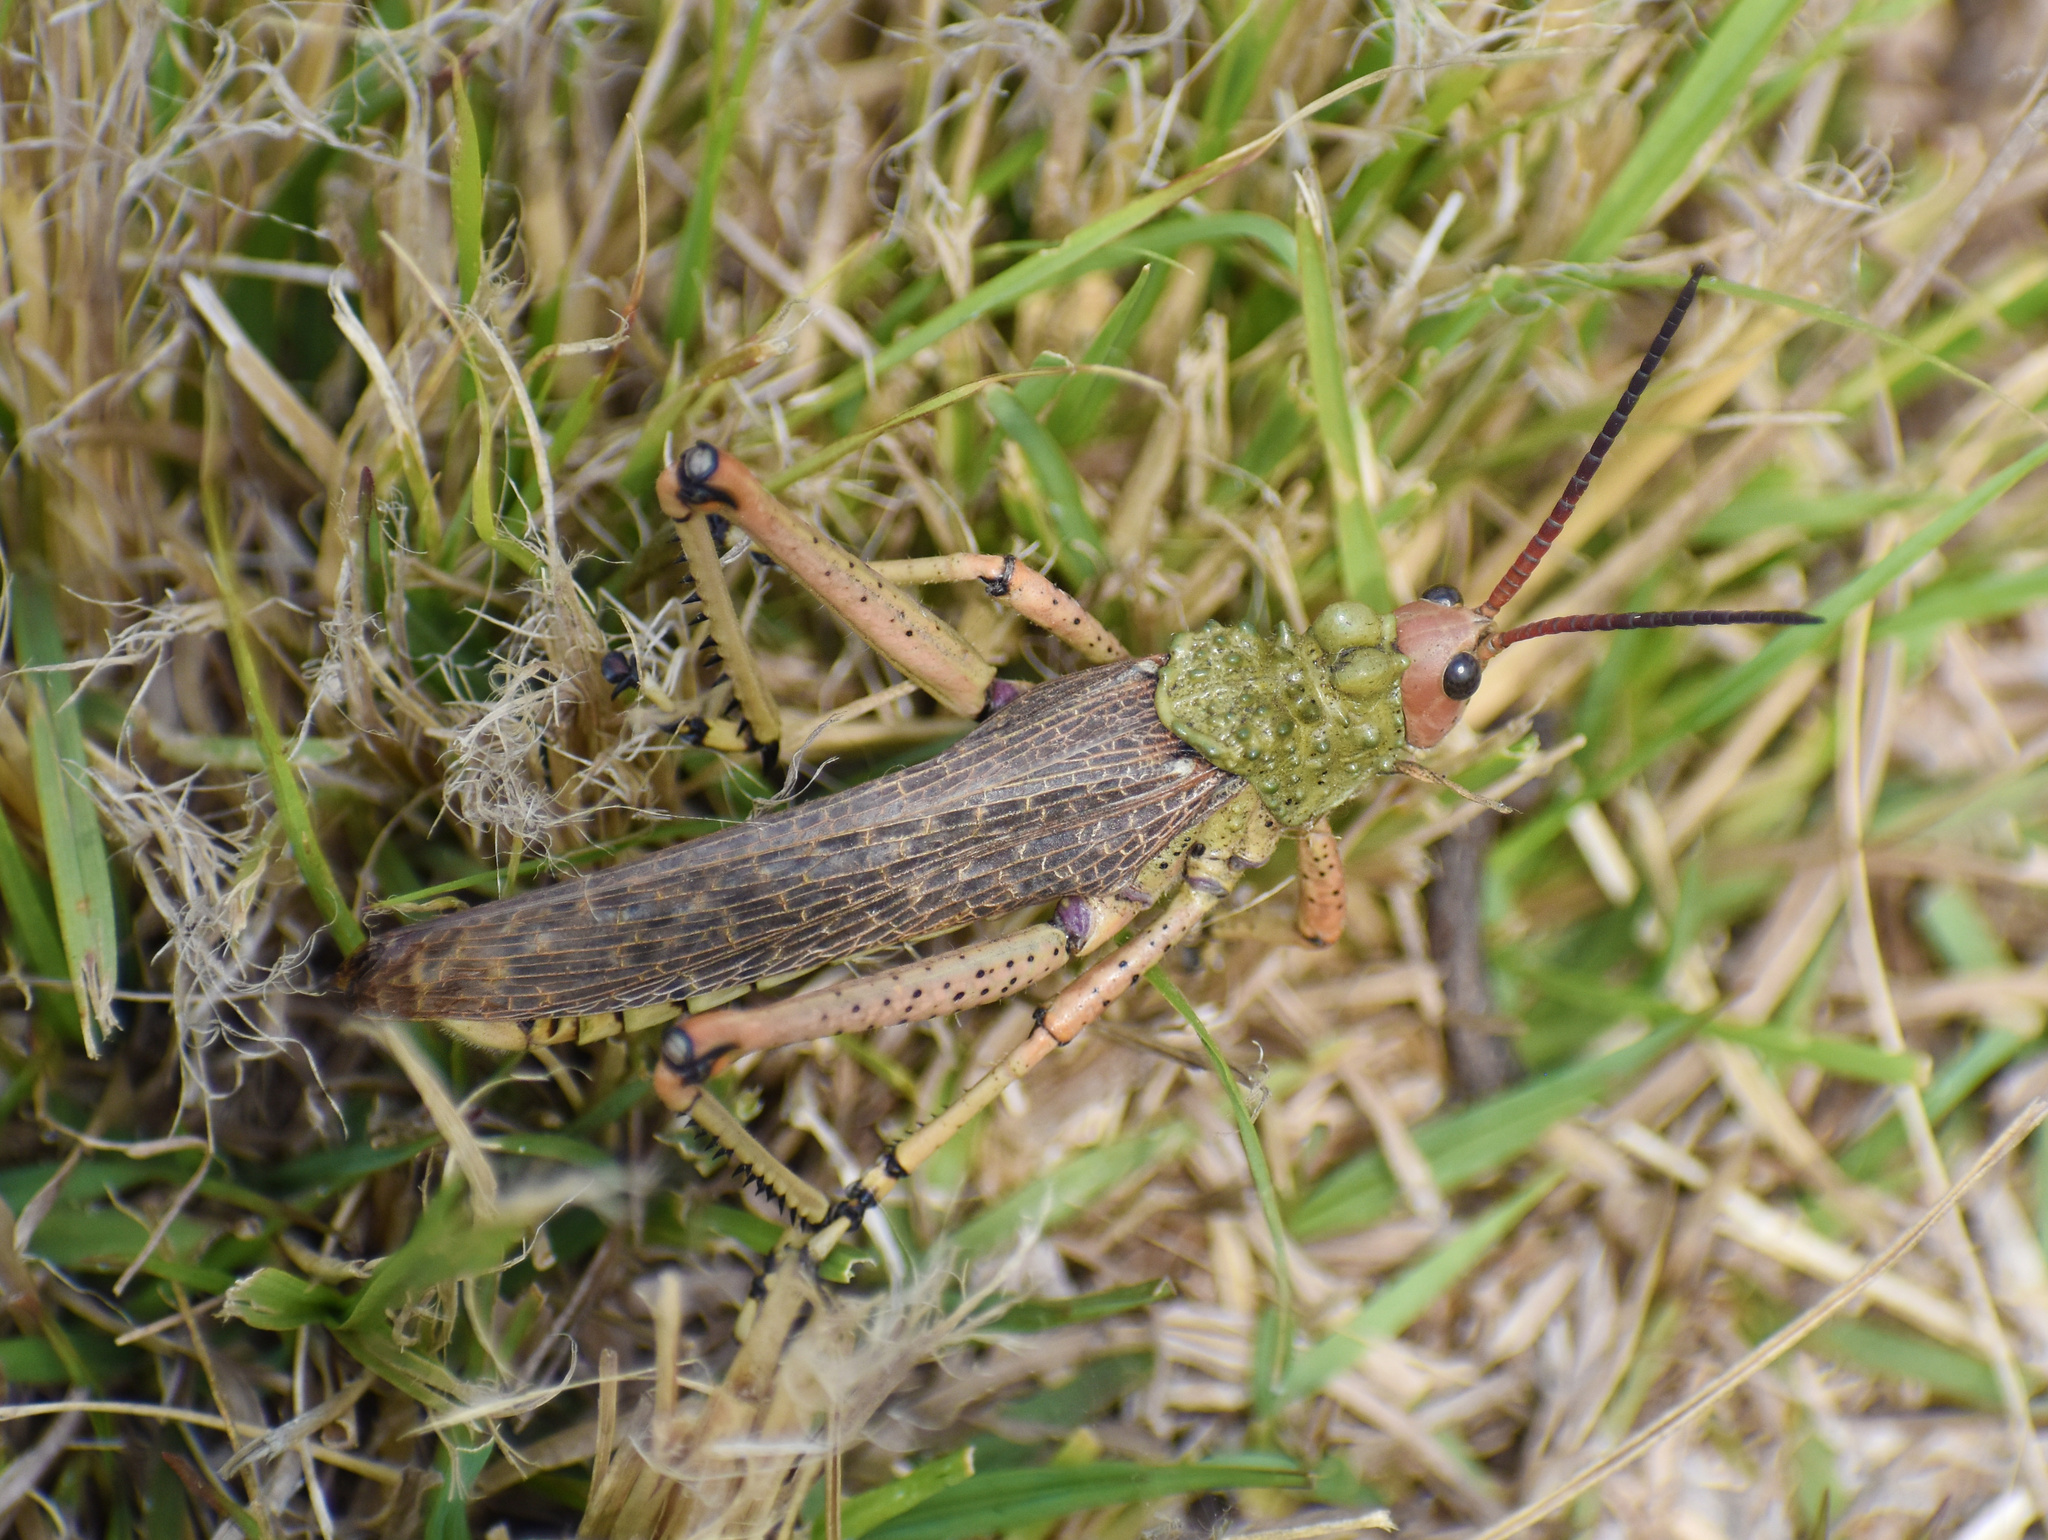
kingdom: Animalia
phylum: Arthropoda
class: Insecta
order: Orthoptera
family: Pyrgomorphidae
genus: Phymateus
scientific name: Phymateus leprosus
